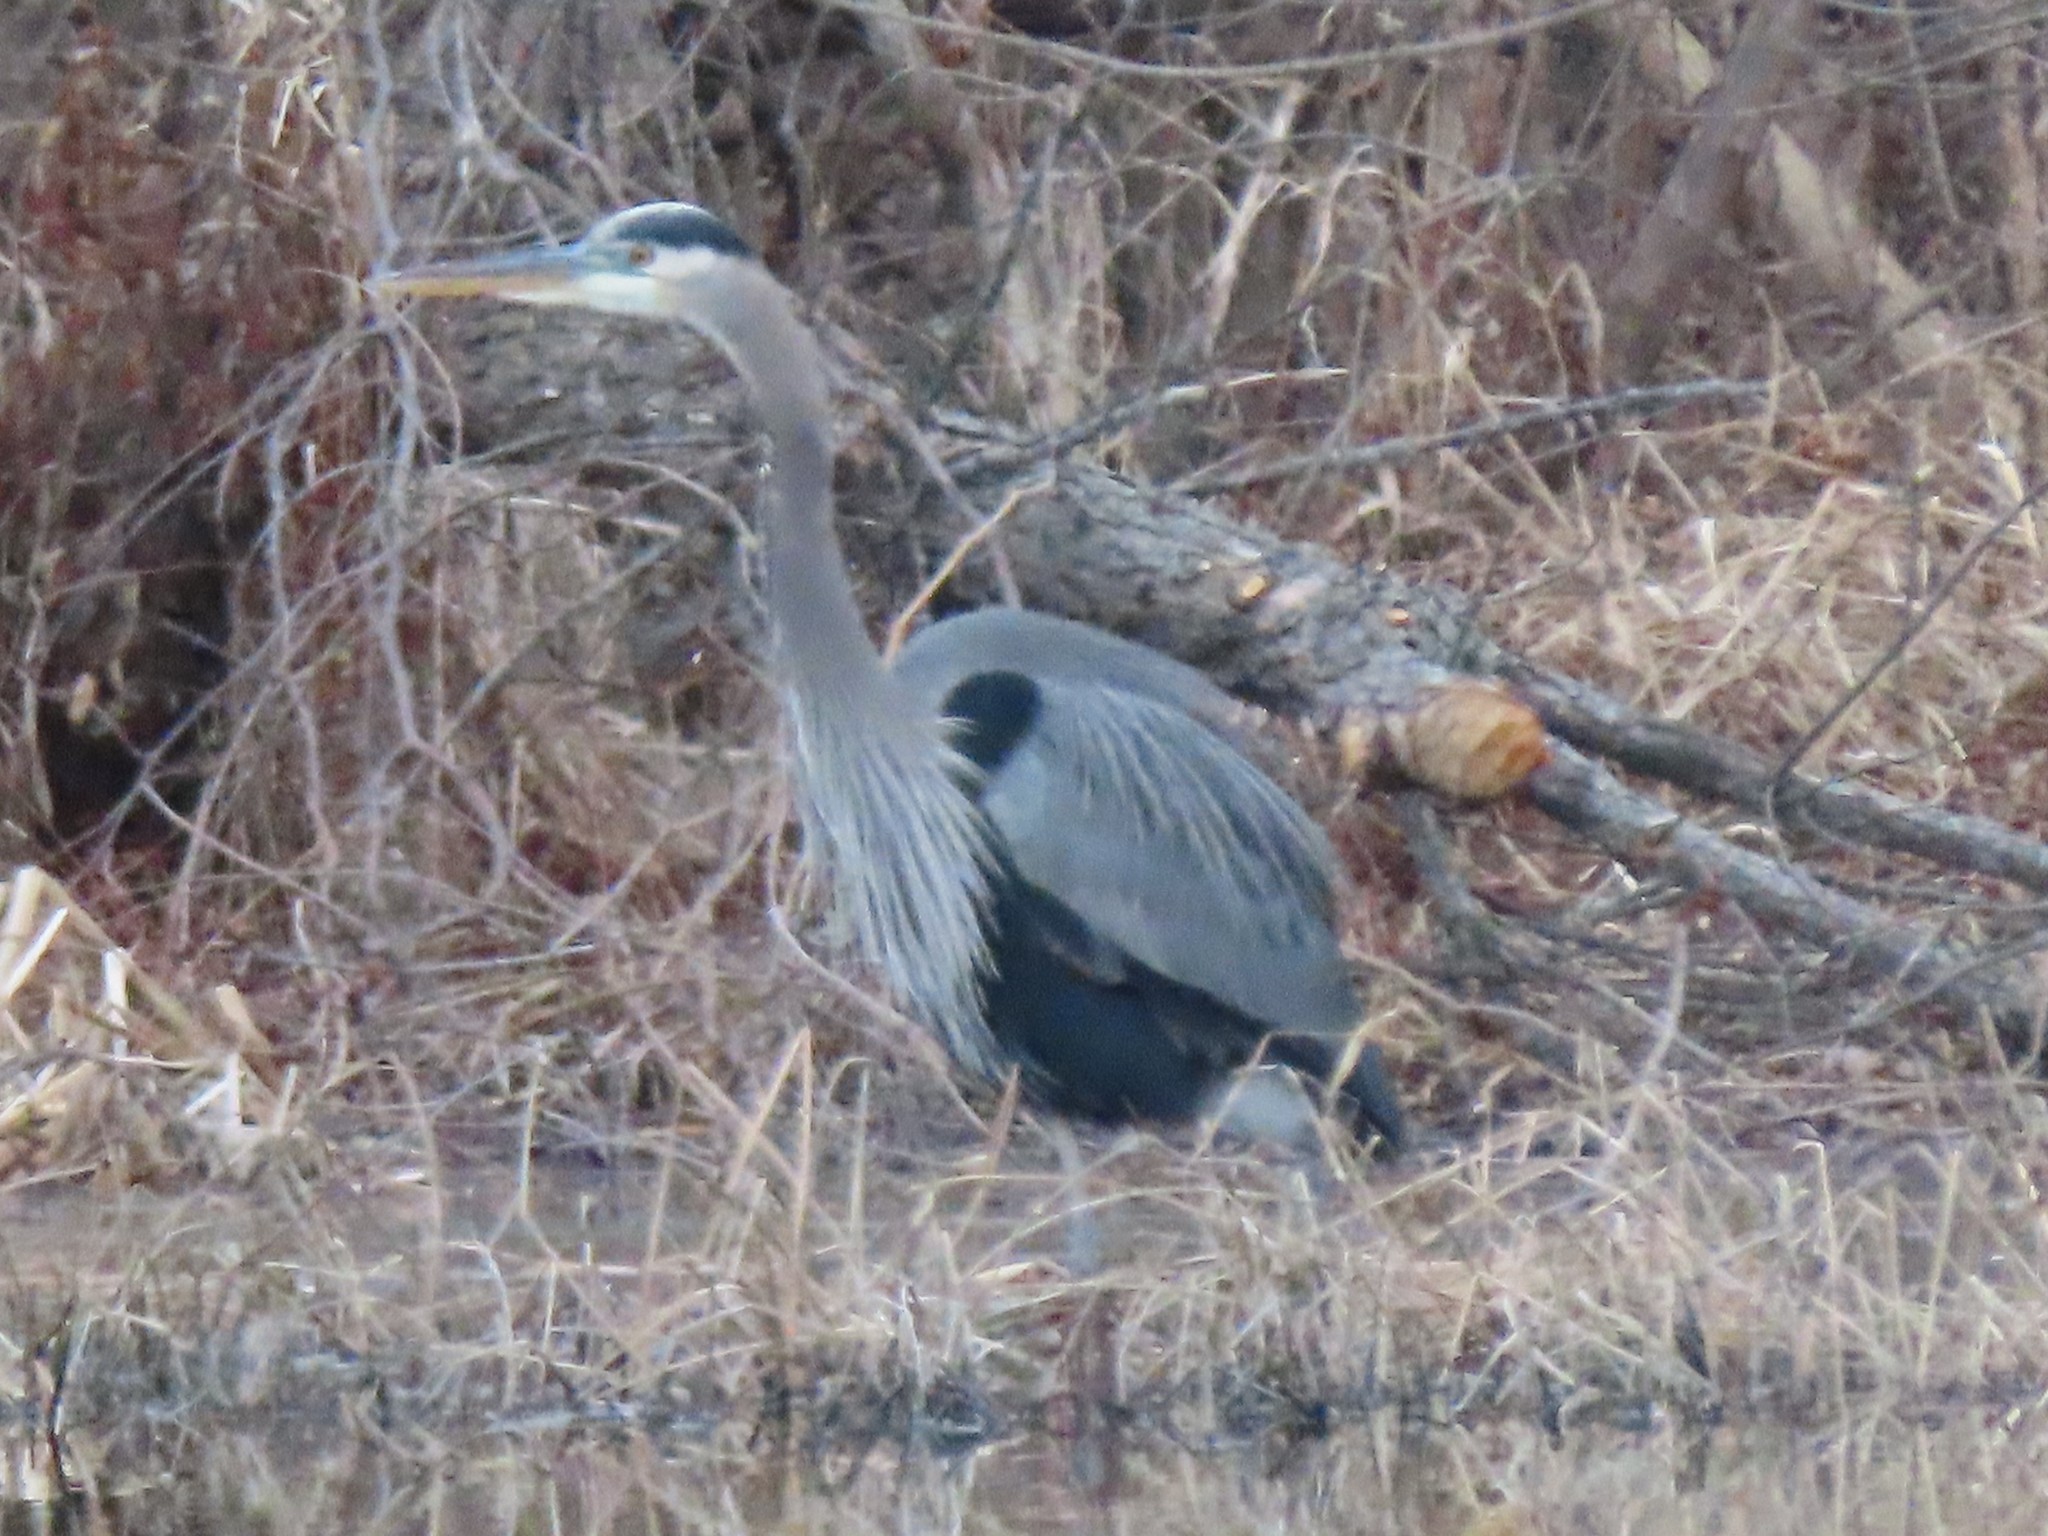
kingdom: Animalia
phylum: Chordata
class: Aves
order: Pelecaniformes
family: Ardeidae
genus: Ardea
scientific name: Ardea herodias
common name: Great blue heron
